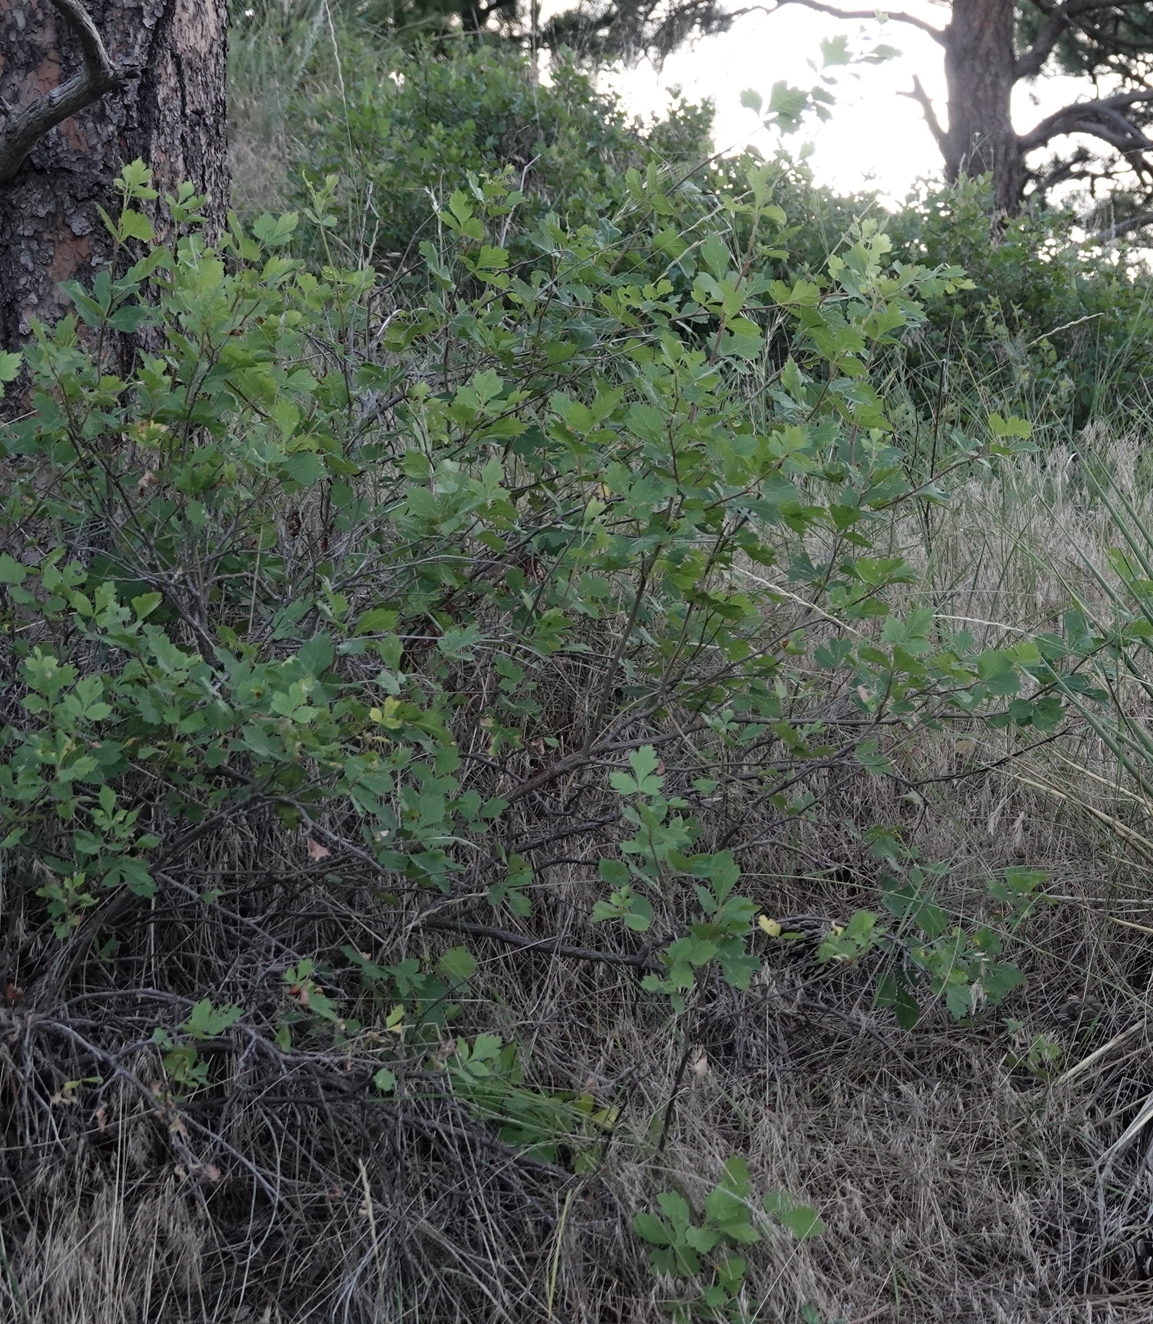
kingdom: Plantae
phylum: Tracheophyta
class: Magnoliopsida
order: Sapindales
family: Anacardiaceae
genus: Rhus
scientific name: Rhus aromatica
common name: Aromatic sumac
